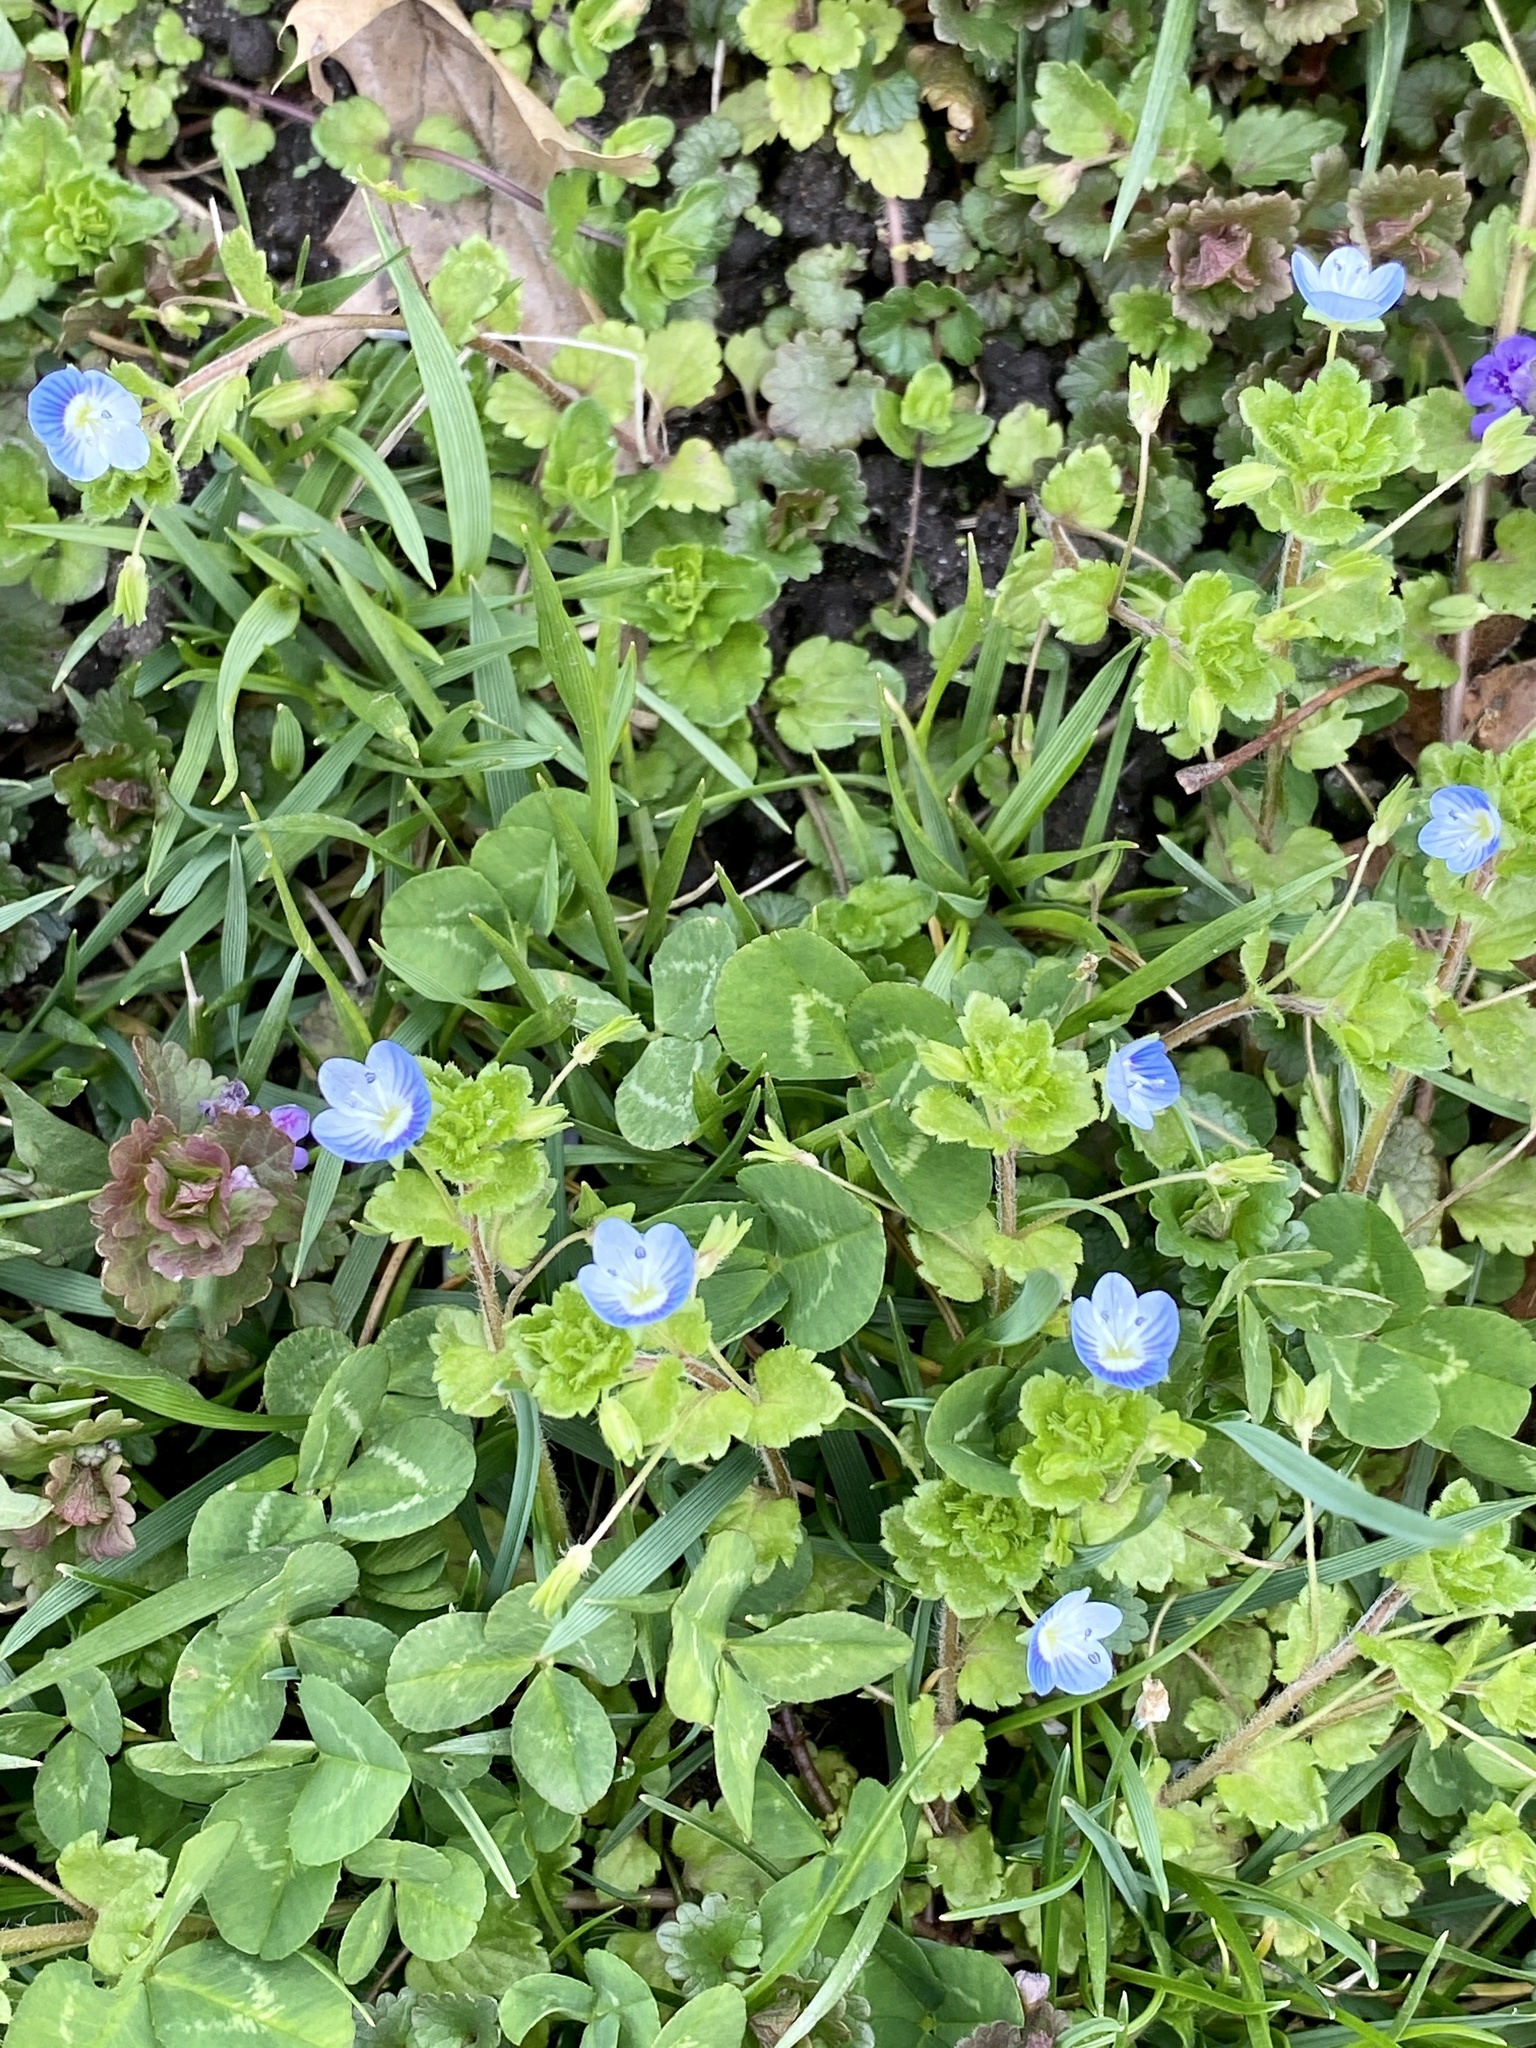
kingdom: Plantae
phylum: Tracheophyta
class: Magnoliopsida
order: Lamiales
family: Plantaginaceae
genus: Veronica
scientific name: Veronica persica
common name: Common field-speedwell
